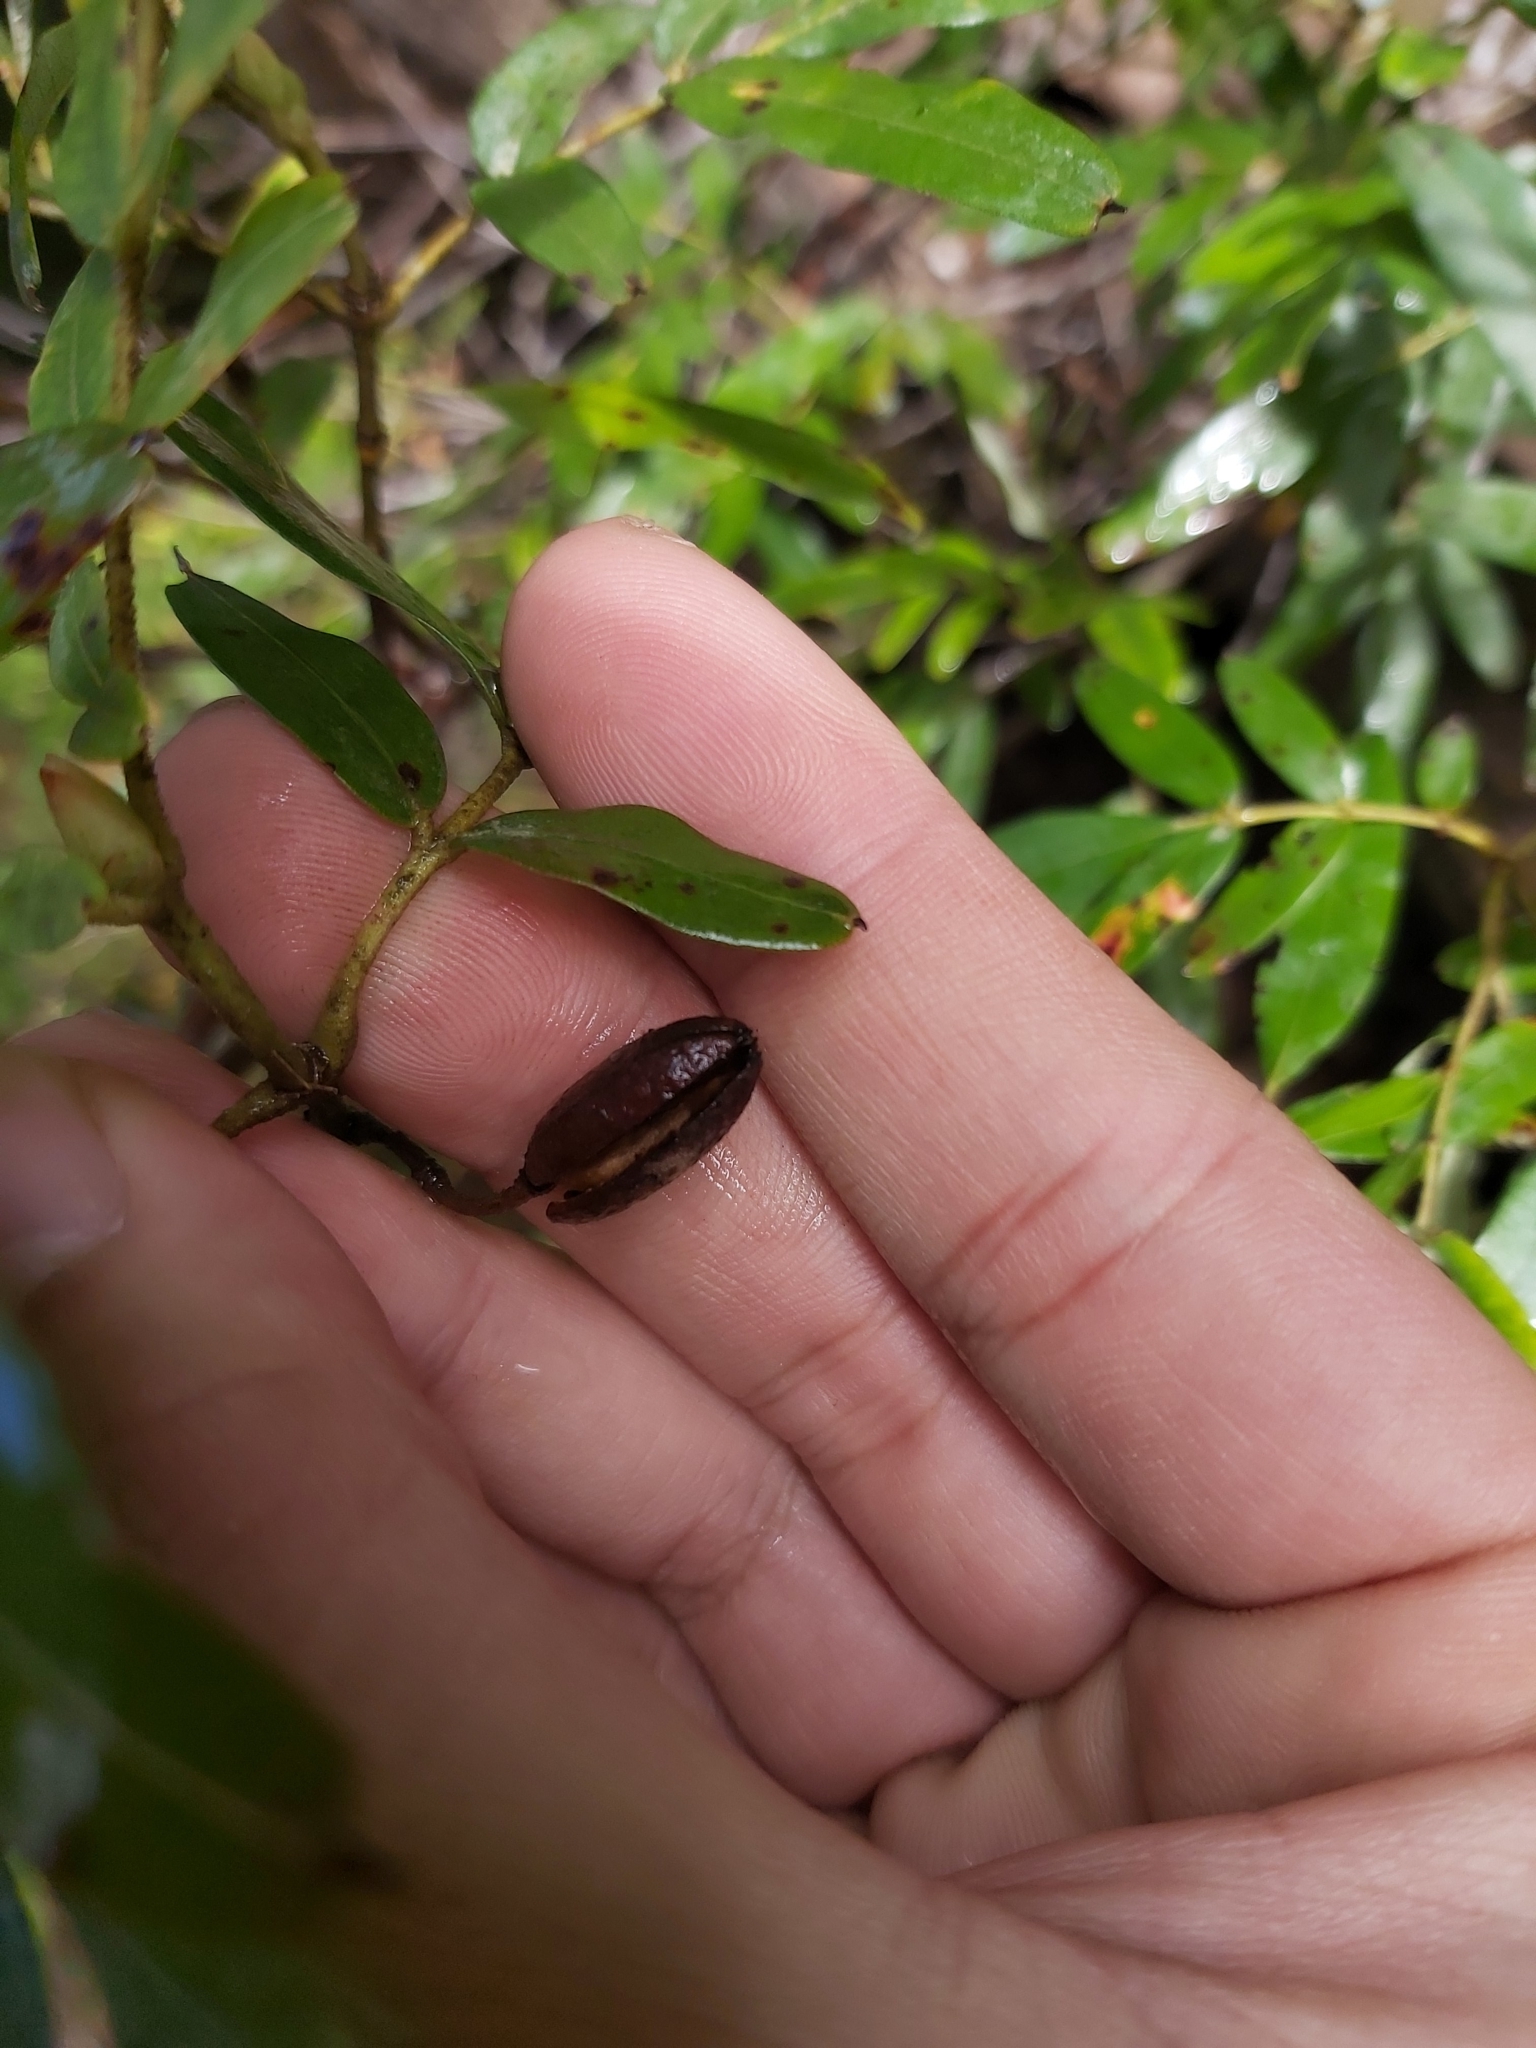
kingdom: Plantae
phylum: Tracheophyta
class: Magnoliopsida
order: Oxalidales
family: Cunoniaceae
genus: Eucryphia
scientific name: Eucryphia moorei
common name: Acacia-plum
